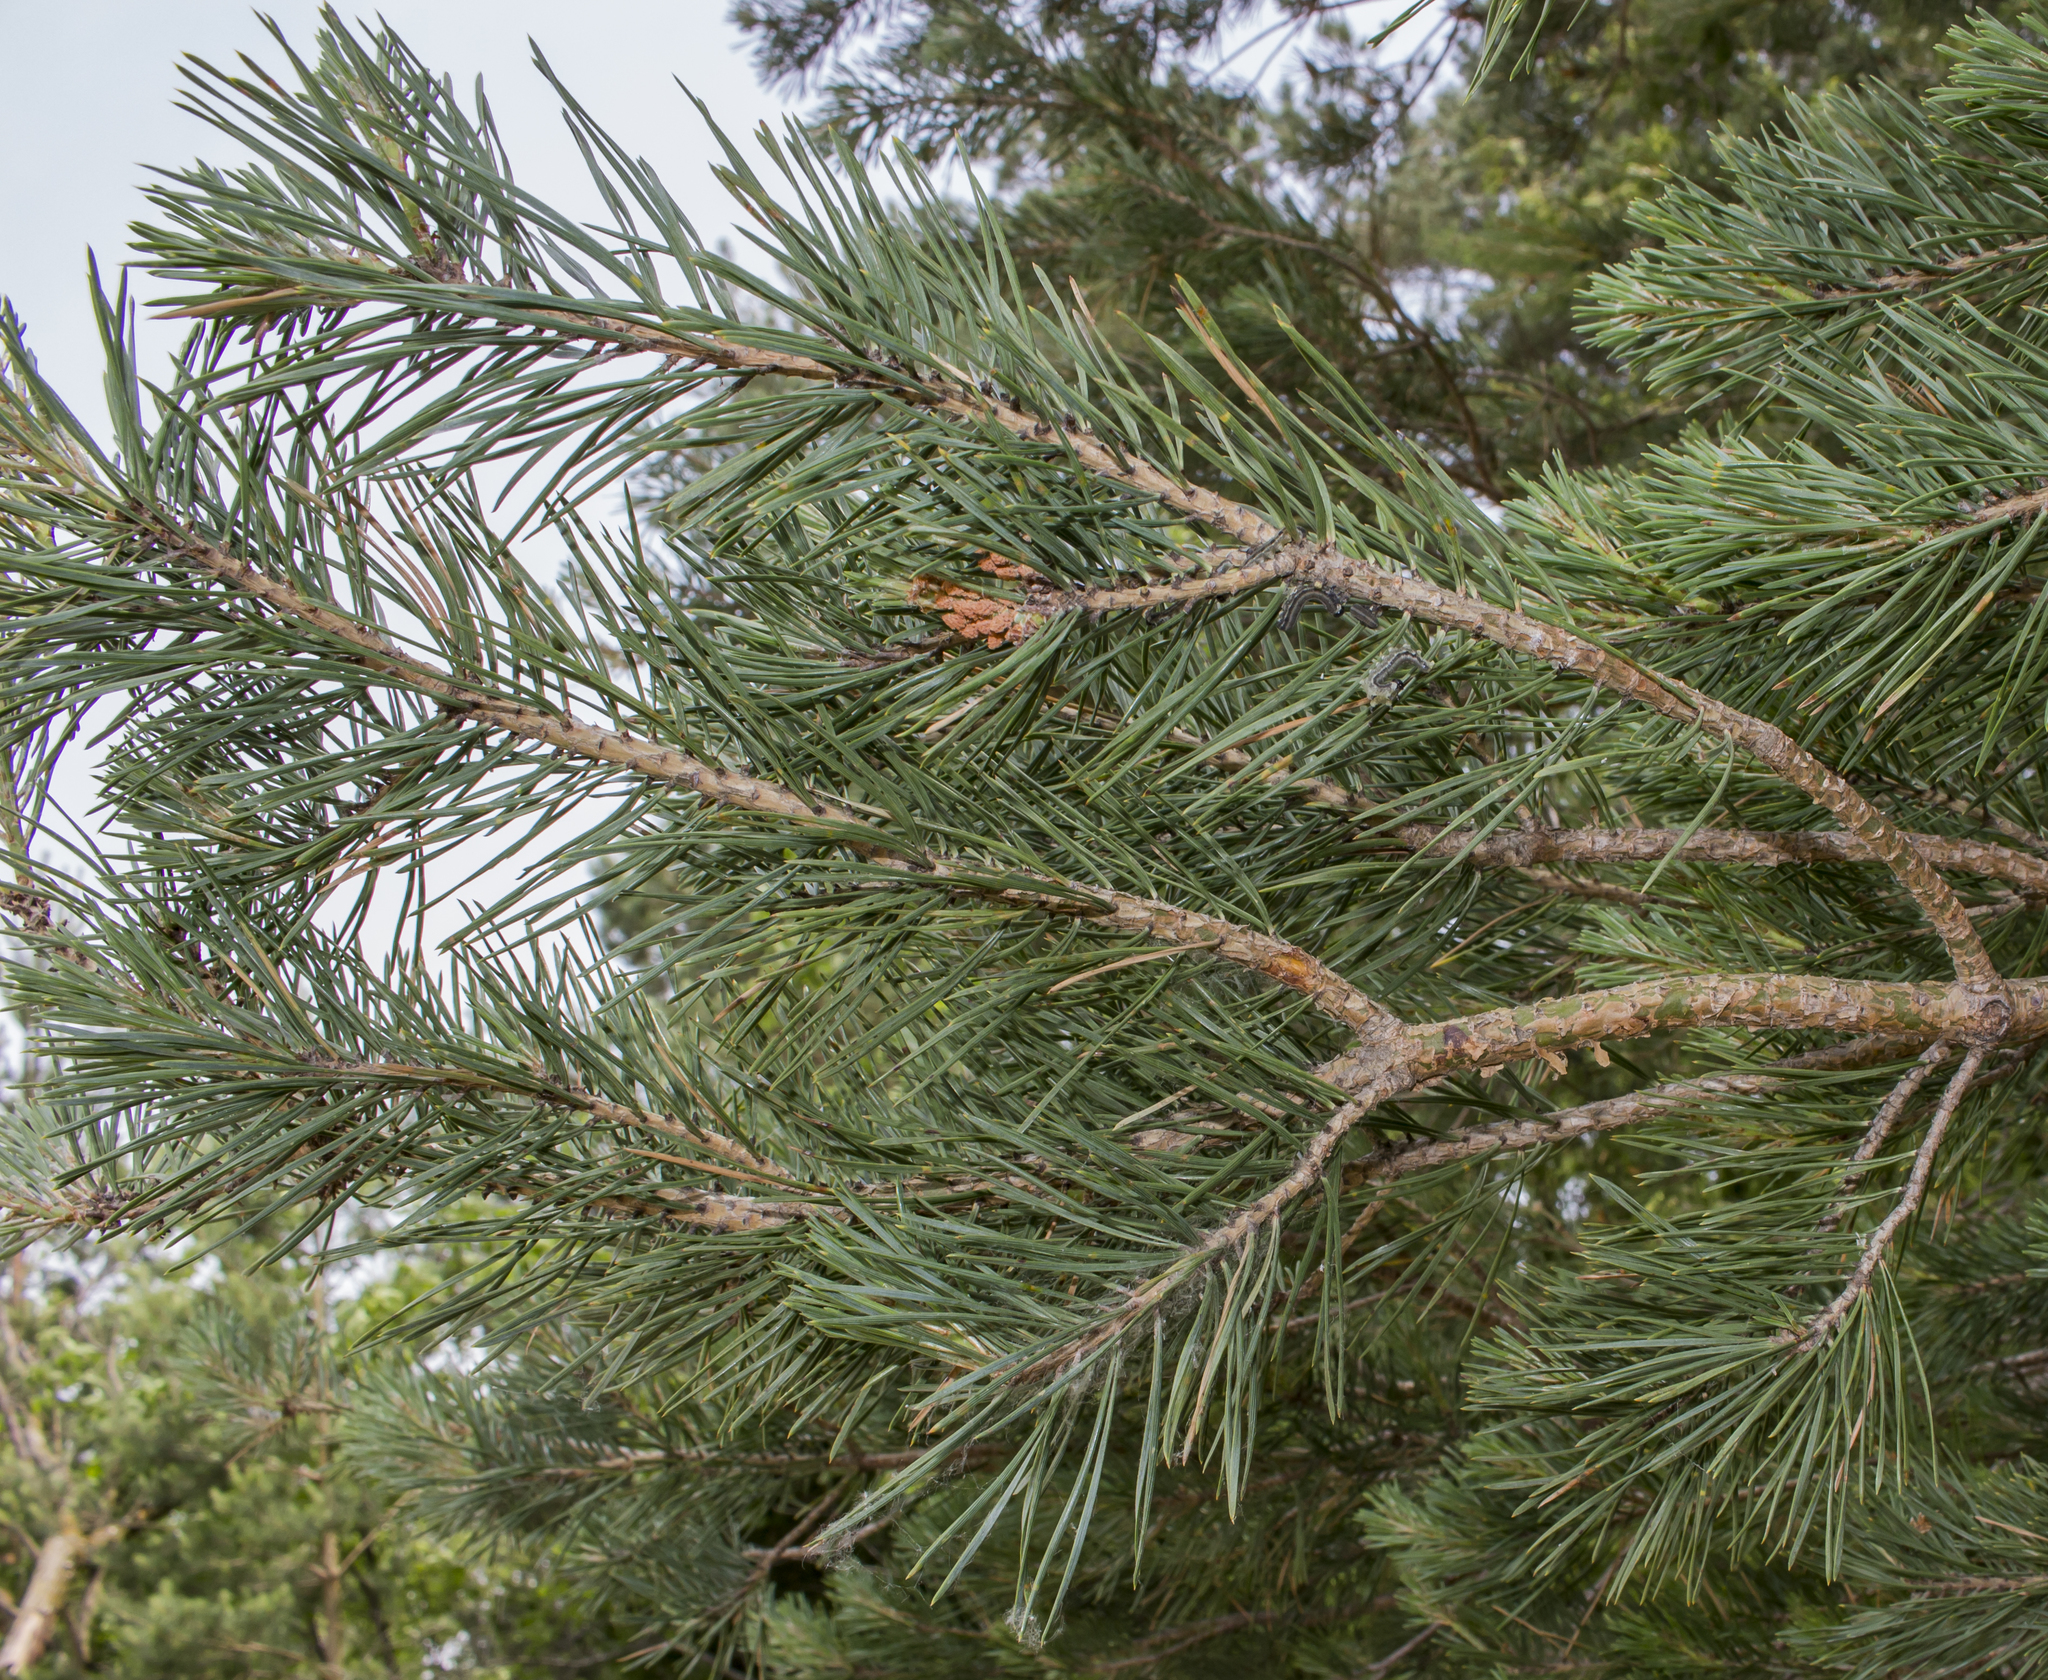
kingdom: Plantae
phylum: Tracheophyta
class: Pinopsida
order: Pinales
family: Pinaceae
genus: Pinus
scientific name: Pinus sylvestris
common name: Scots pine
